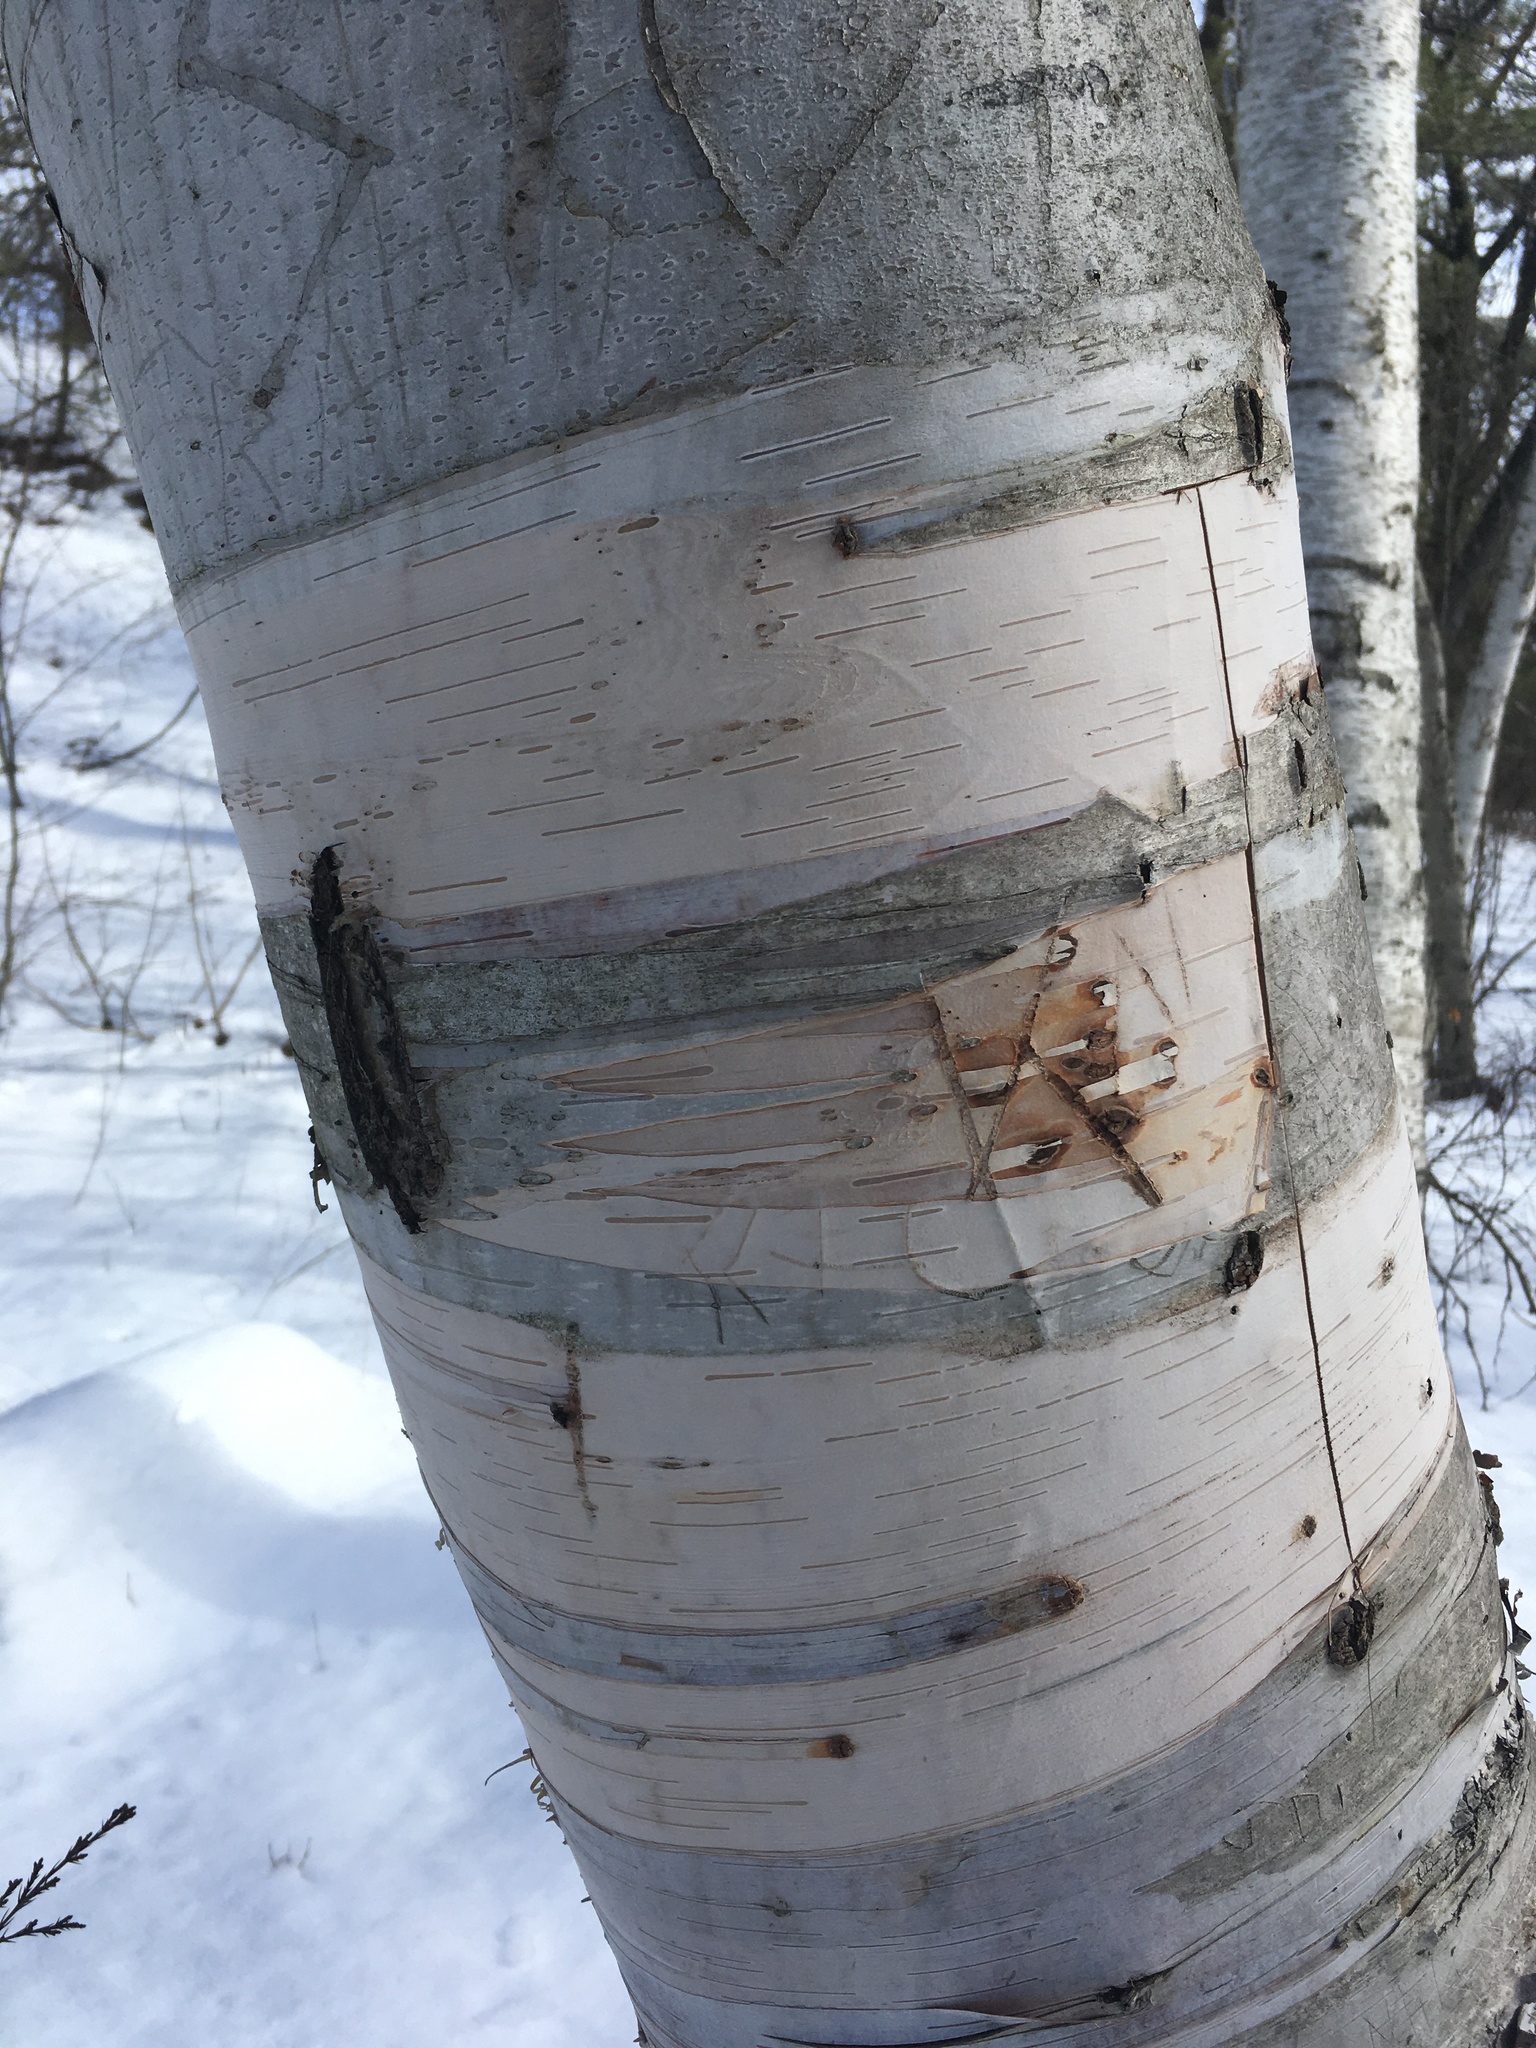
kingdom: Plantae
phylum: Tracheophyta
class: Magnoliopsida
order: Fagales
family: Betulaceae
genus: Betula
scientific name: Betula papyrifera
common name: Paper birch
